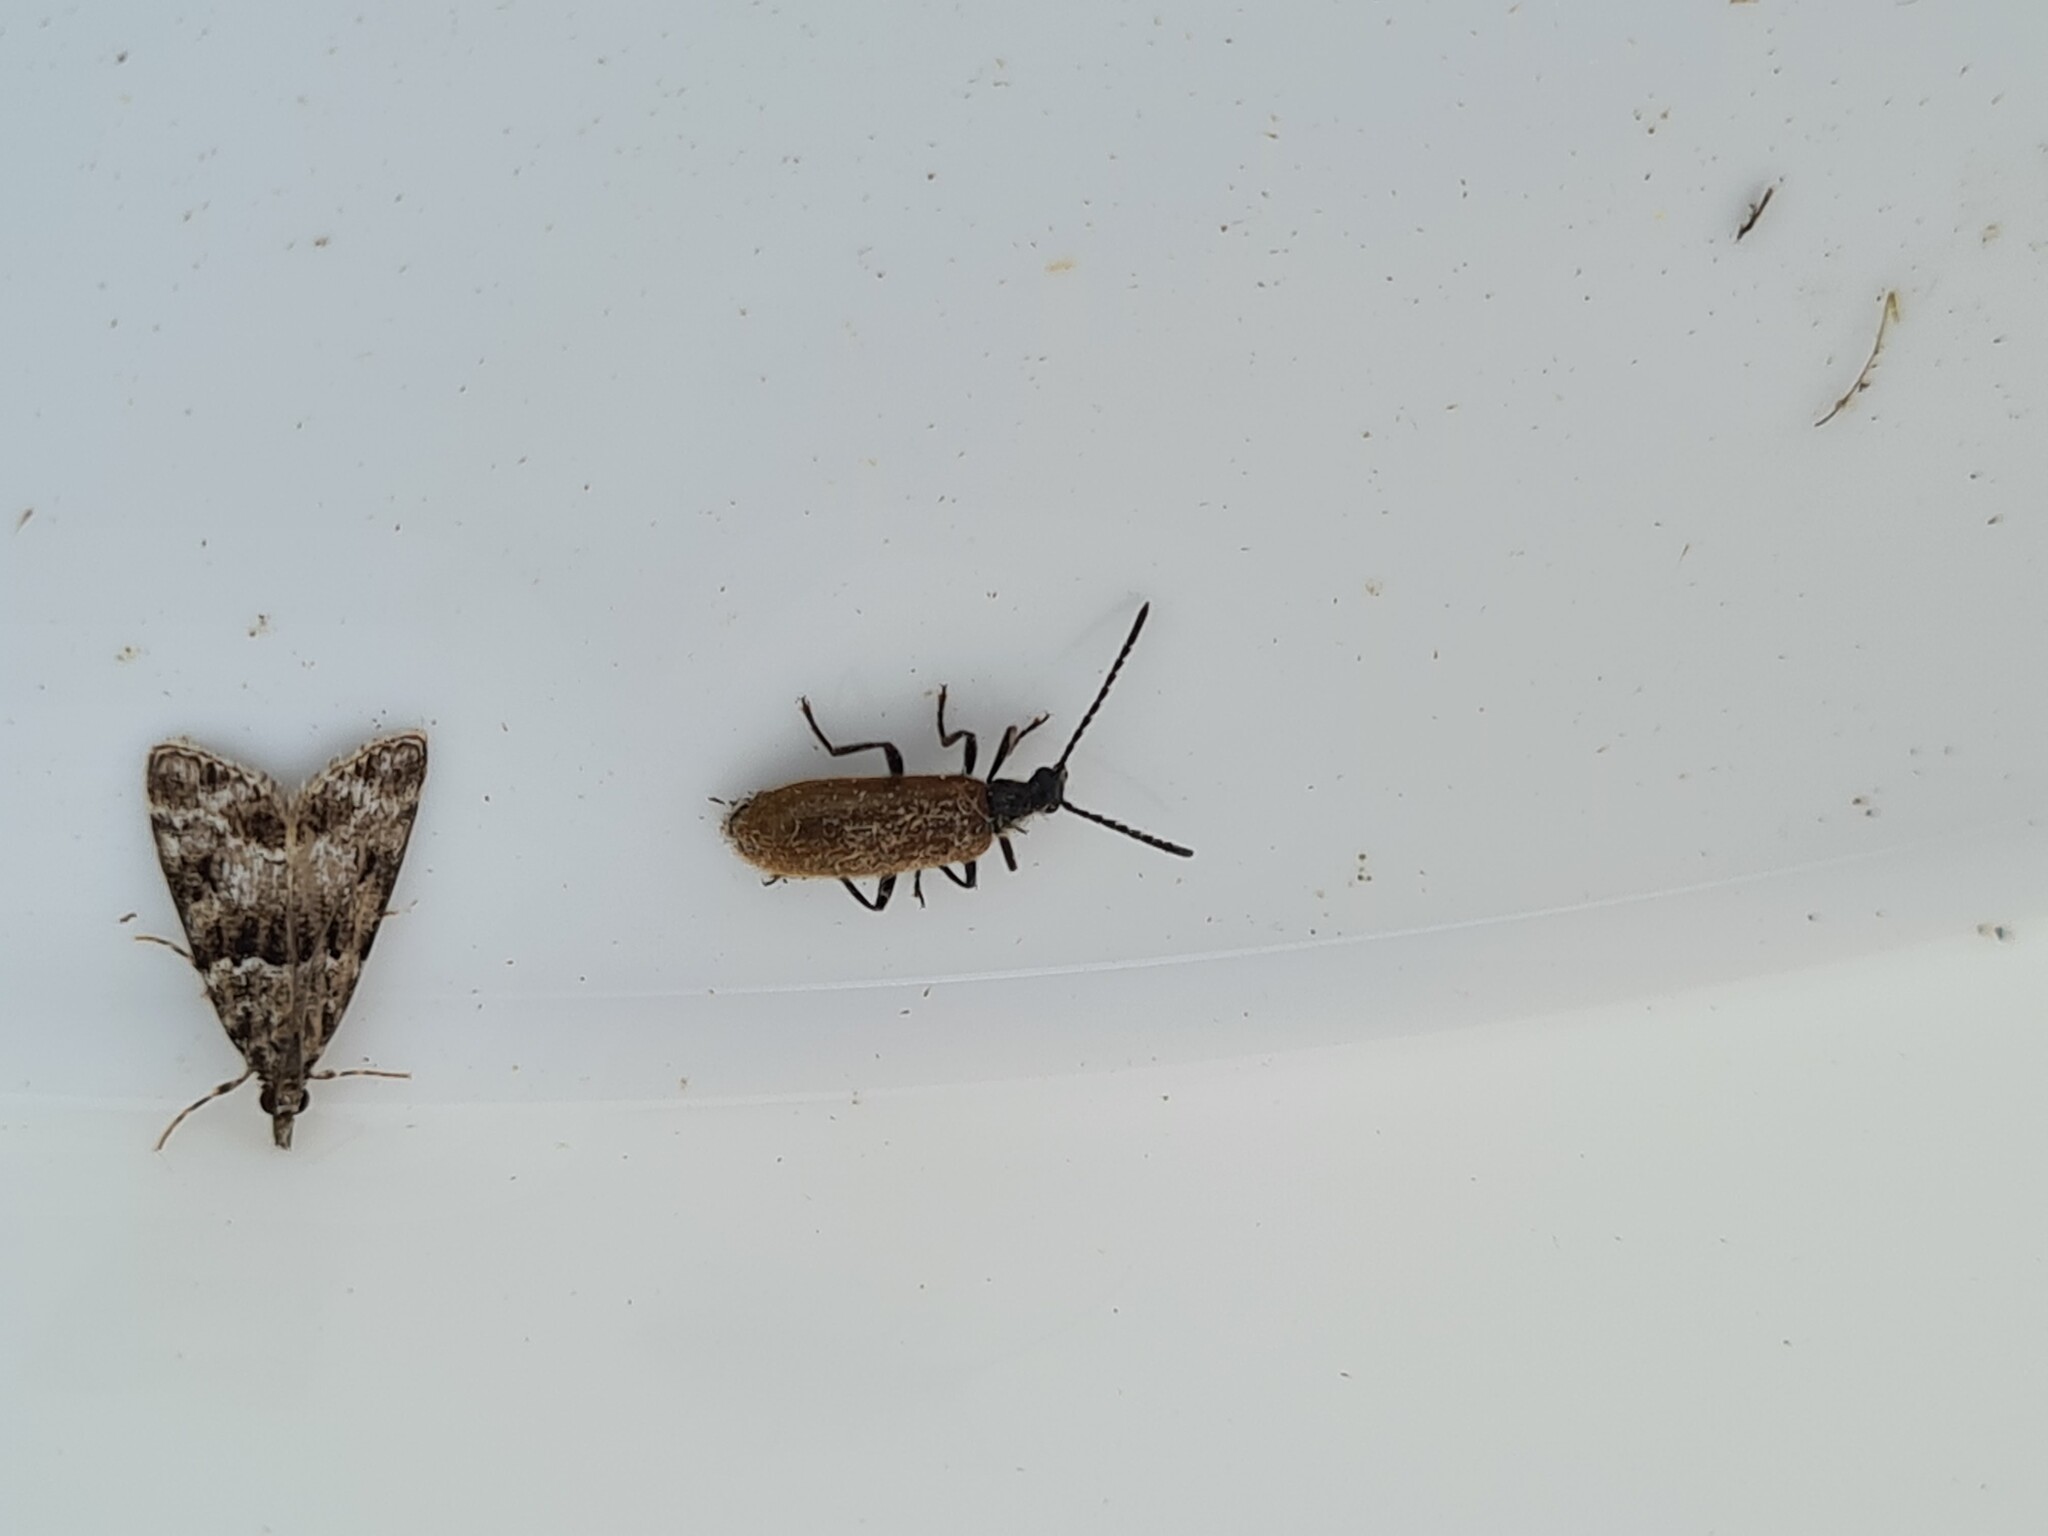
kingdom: Animalia
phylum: Arthropoda
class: Insecta
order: Coleoptera
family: Tenebrionidae
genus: Lagria
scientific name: Lagria
